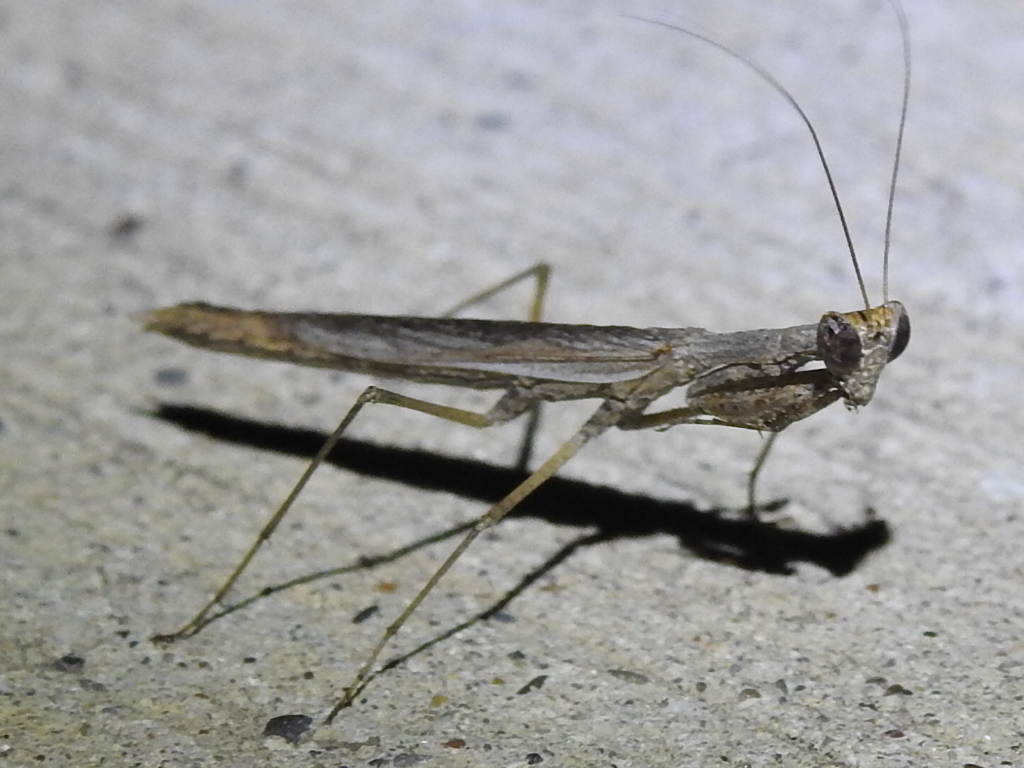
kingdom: Animalia
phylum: Arthropoda
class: Insecta
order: Mantodea
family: Amelidae
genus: Litaneutria
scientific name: Litaneutria minor
